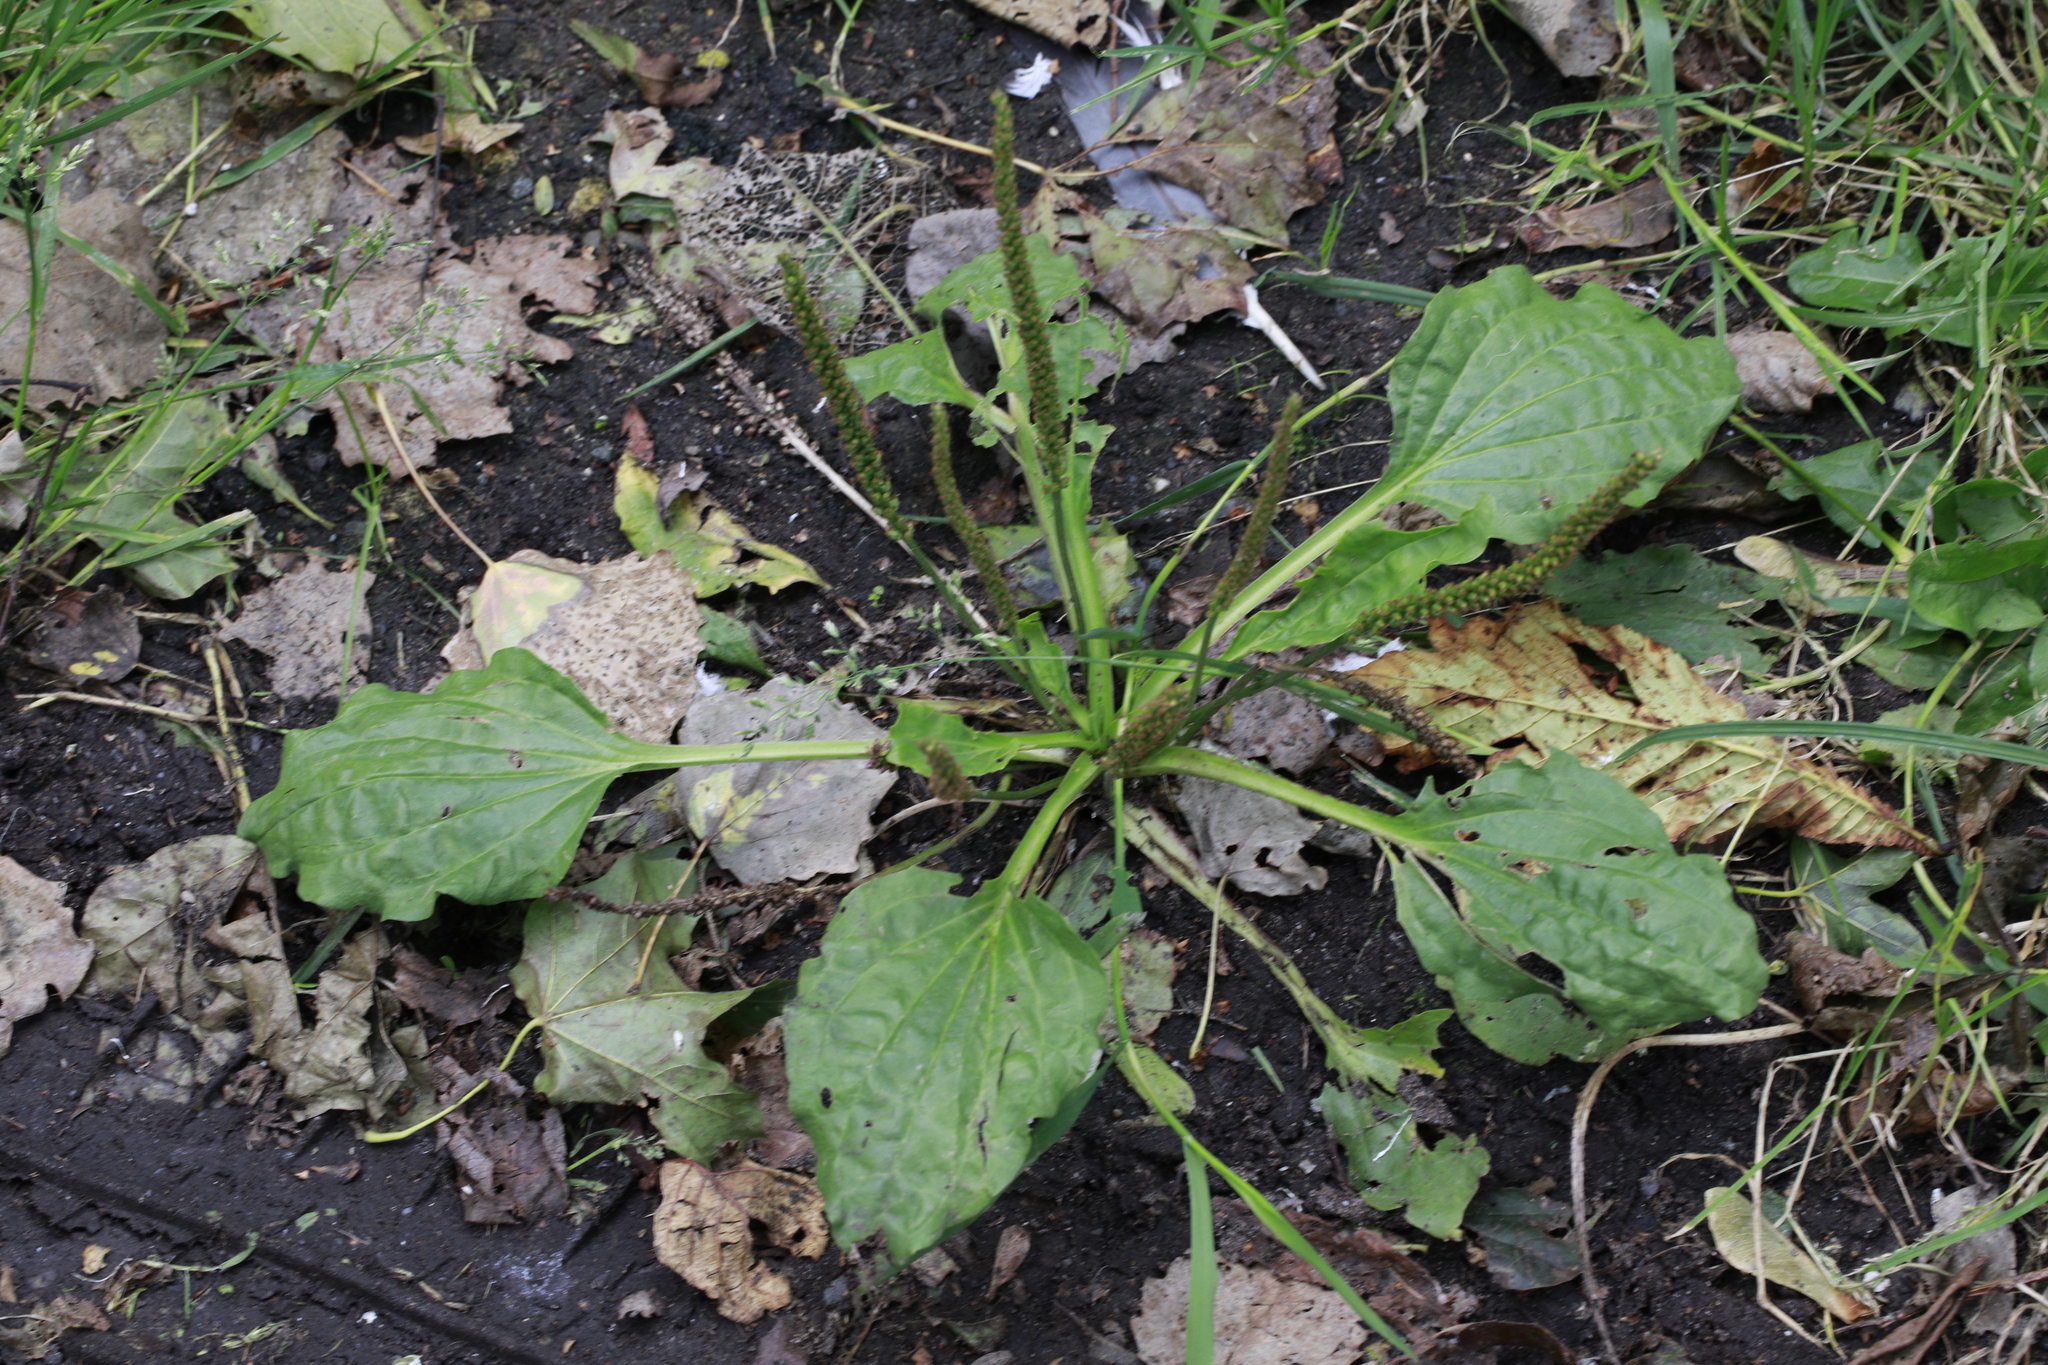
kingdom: Plantae
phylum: Tracheophyta
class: Magnoliopsida
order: Lamiales
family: Plantaginaceae
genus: Plantago
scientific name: Plantago major
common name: Common plantain
